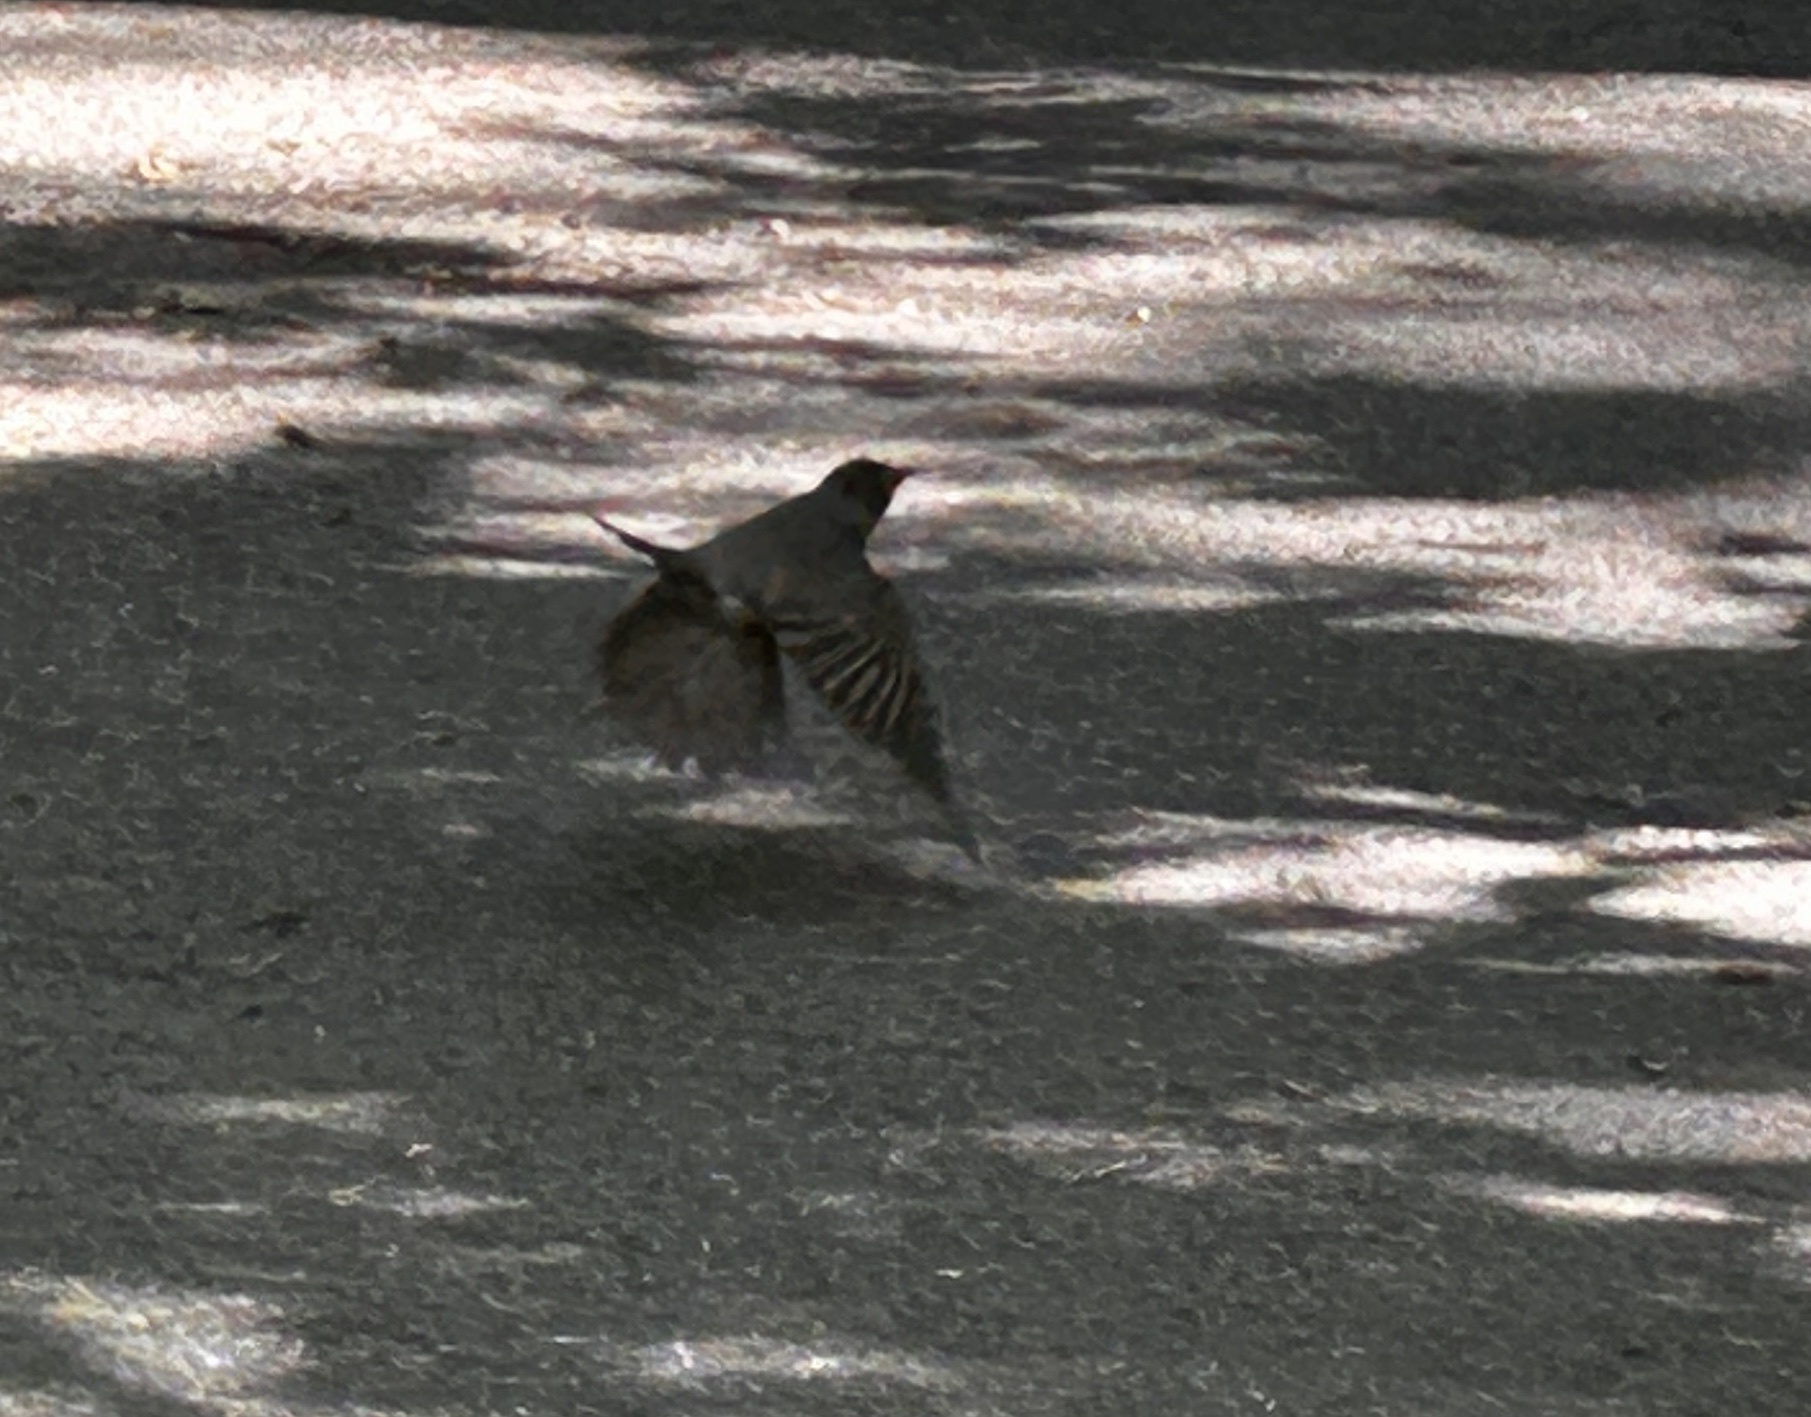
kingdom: Animalia
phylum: Chordata
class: Aves
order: Passeriformes
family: Turdidae
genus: Turdus
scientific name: Turdus migratorius
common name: American robin
